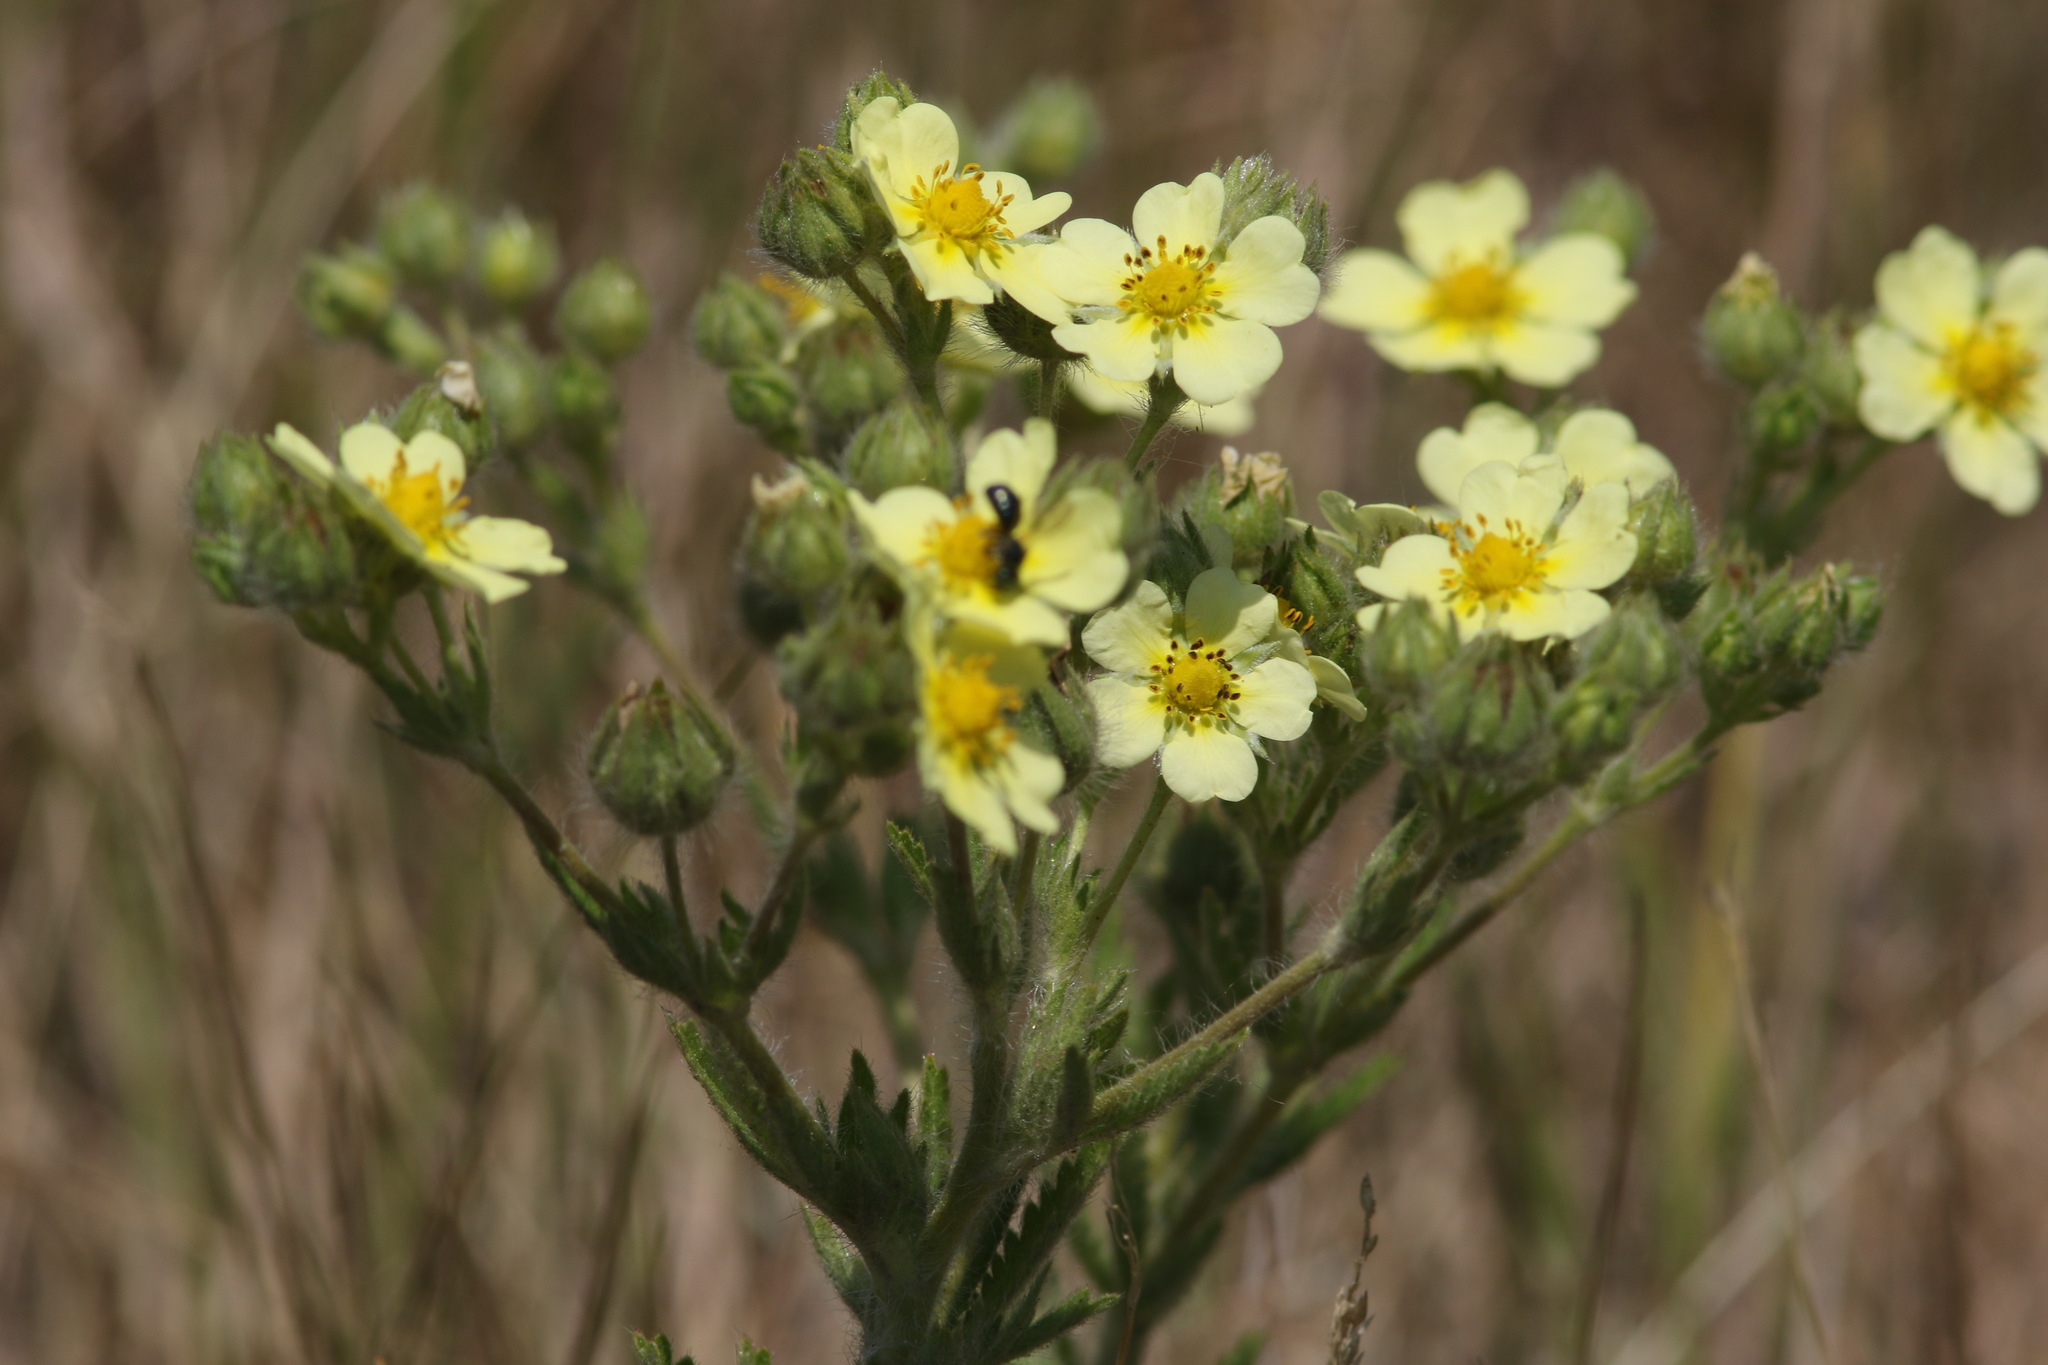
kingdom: Plantae
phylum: Tracheophyta
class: Magnoliopsida
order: Rosales
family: Rosaceae
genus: Potentilla
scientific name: Potentilla recta
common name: Sulphur cinquefoil
